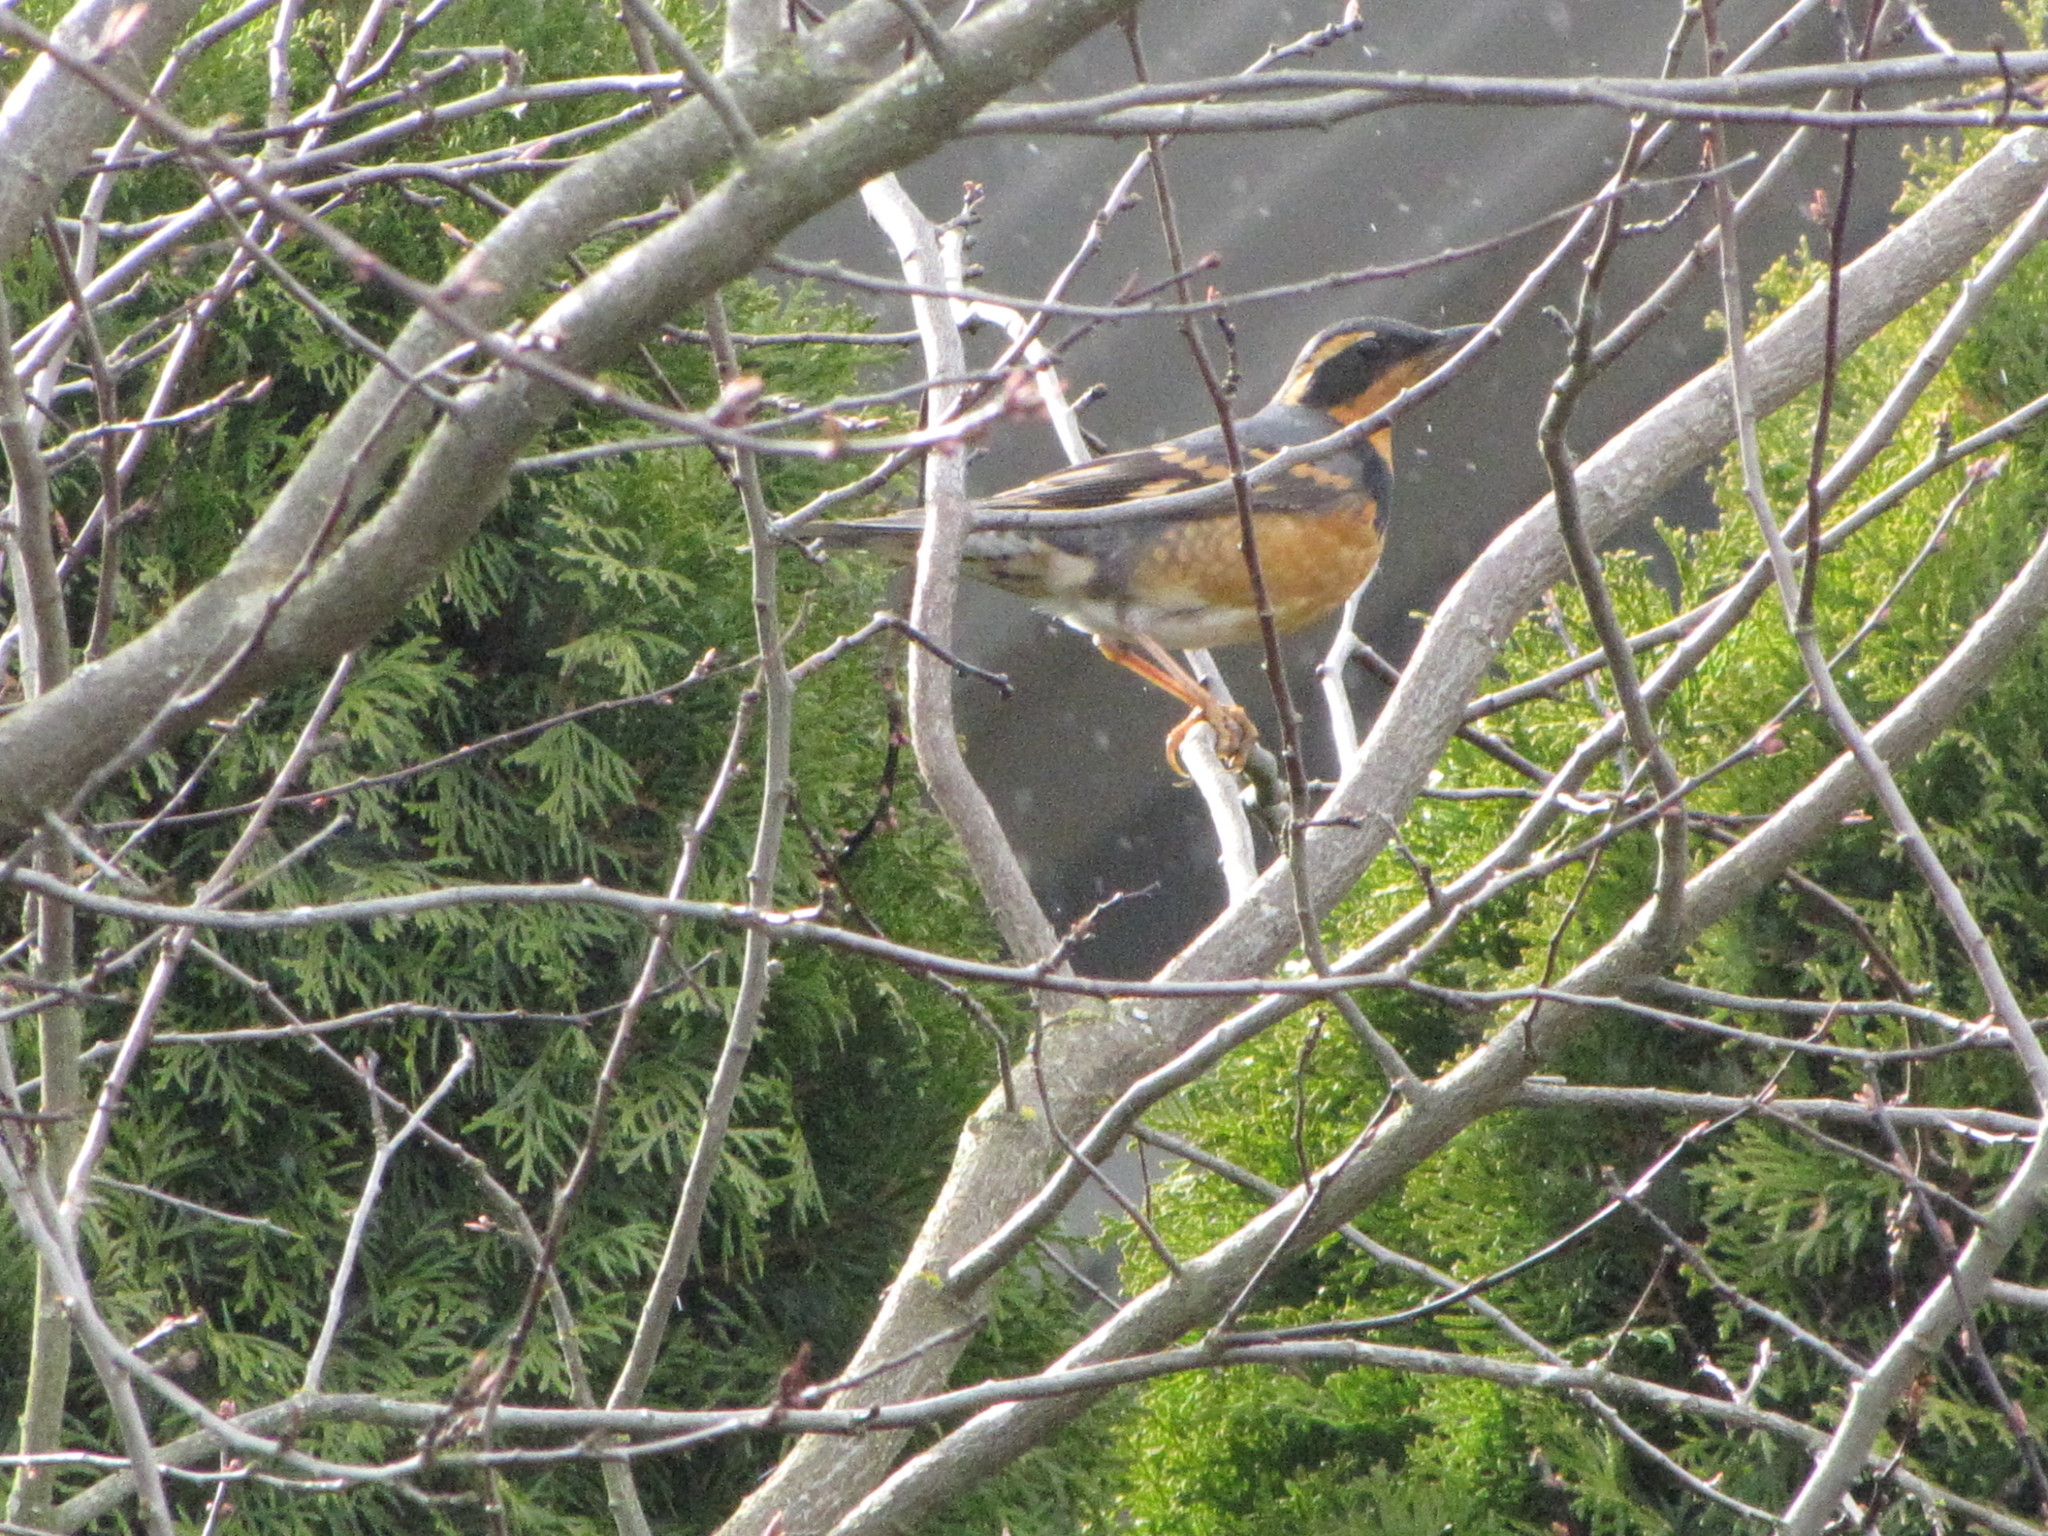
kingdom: Animalia
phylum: Chordata
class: Aves
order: Passeriformes
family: Turdidae
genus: Ixoreus
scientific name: Ixoreus naevius
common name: Varied thrush
